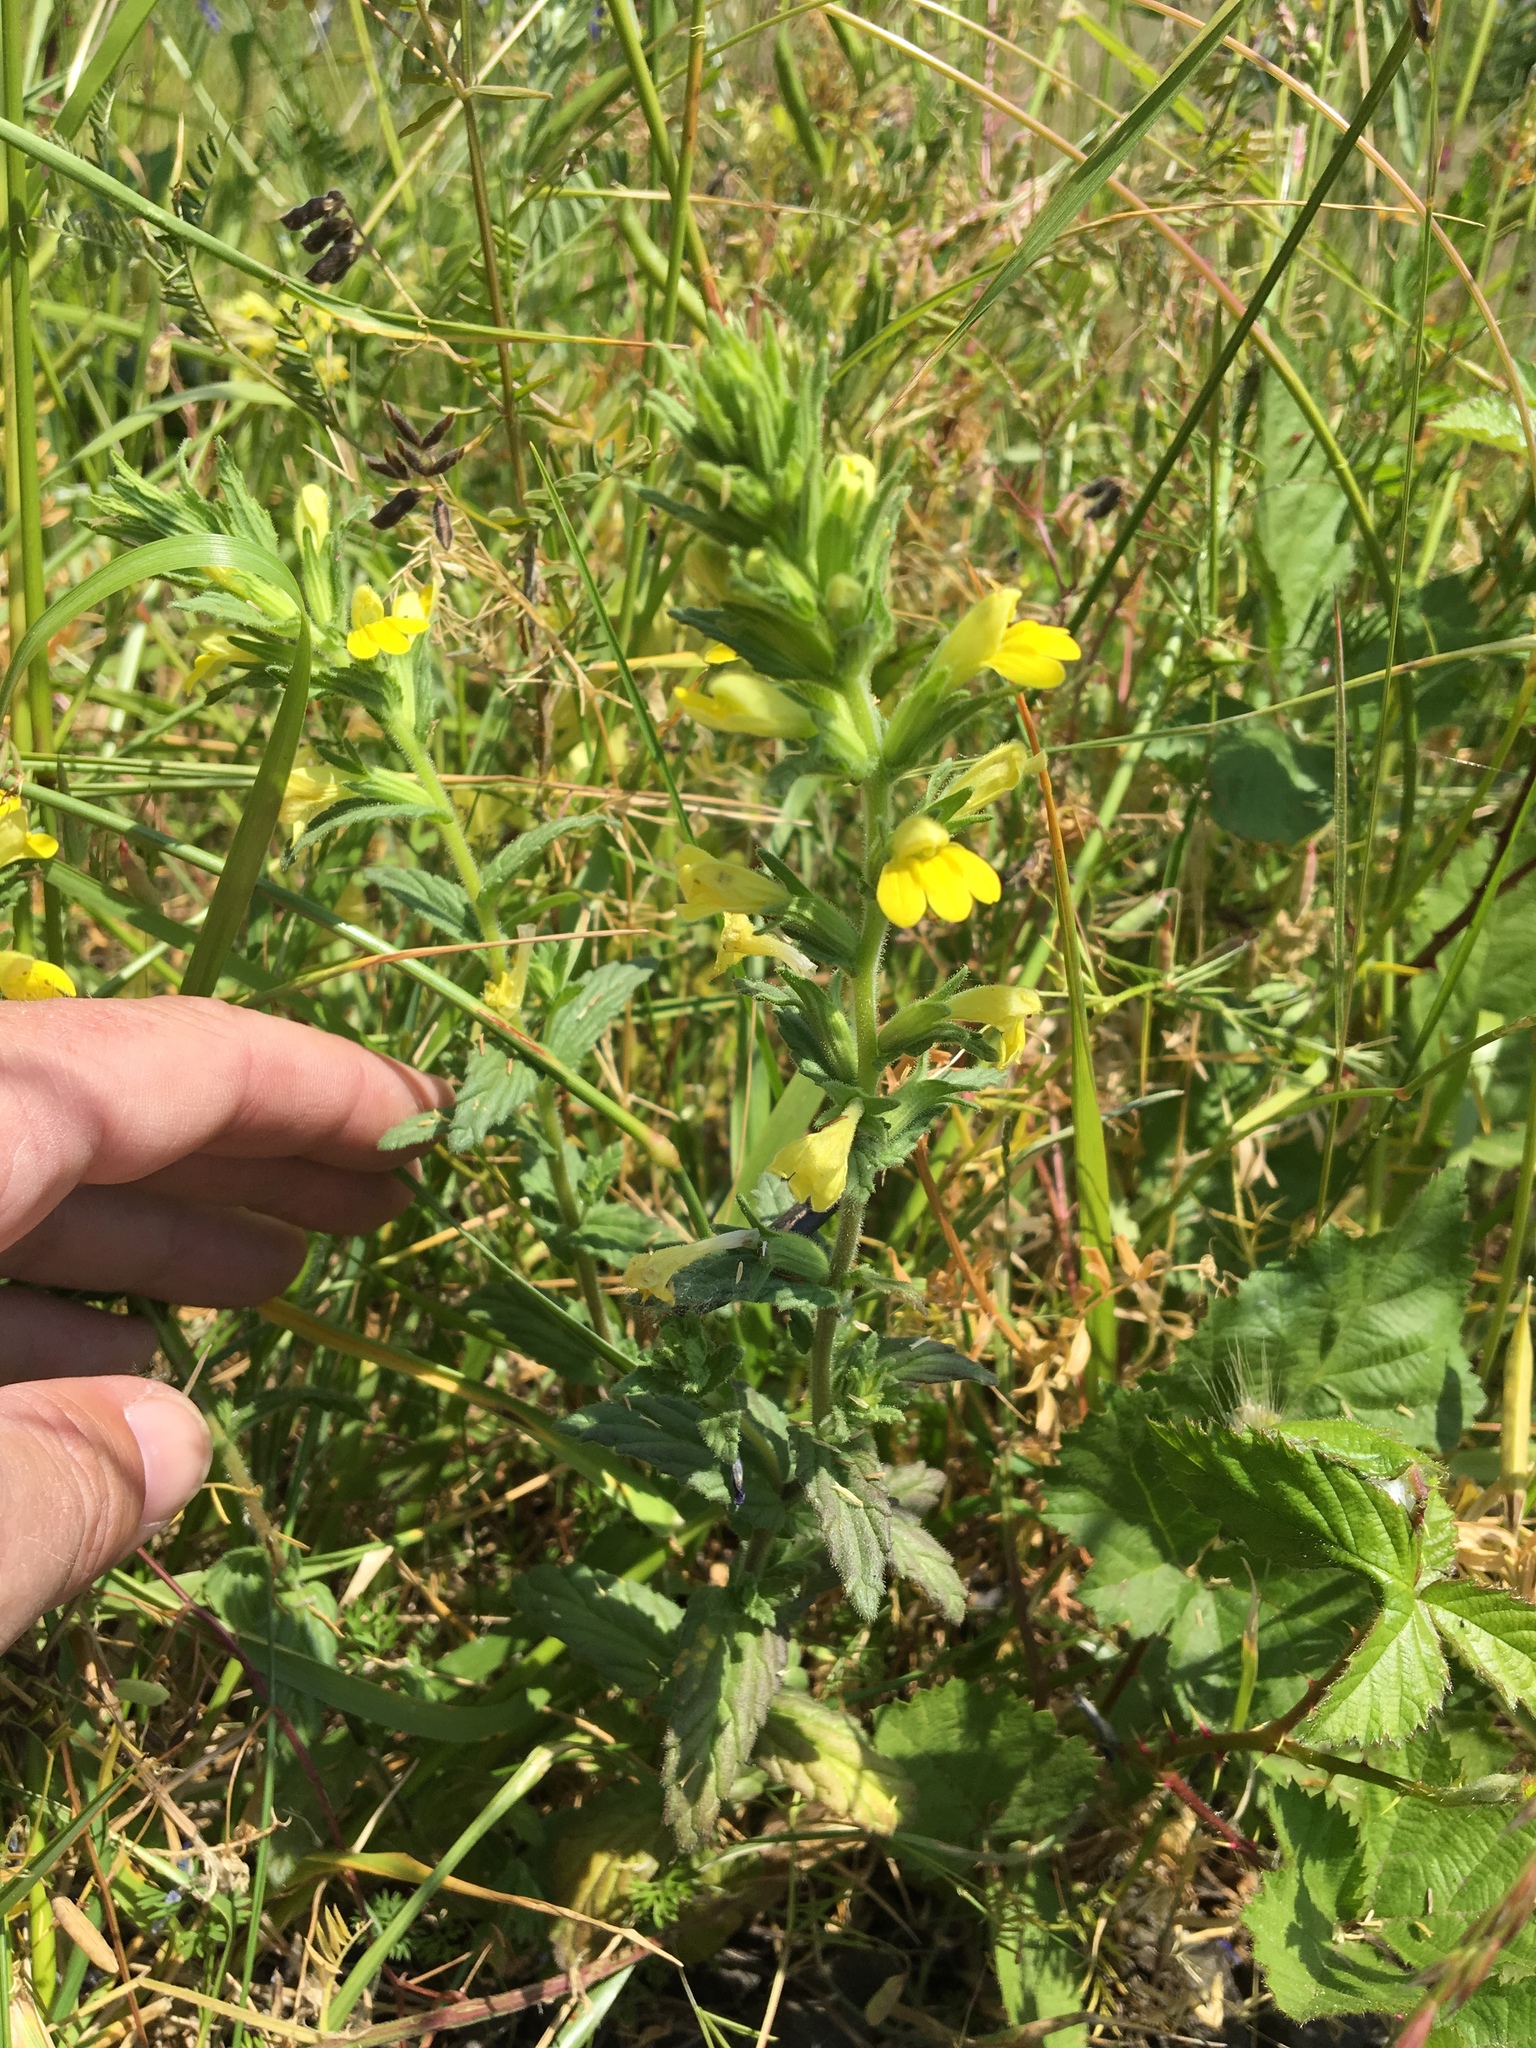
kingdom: Plantae
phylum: Tracheophyta
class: Magnoliopsida
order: Lamiales
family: Orobanchaceae
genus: Bellardia
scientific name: Bellardia viscosa
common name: Sticky parentucellia
